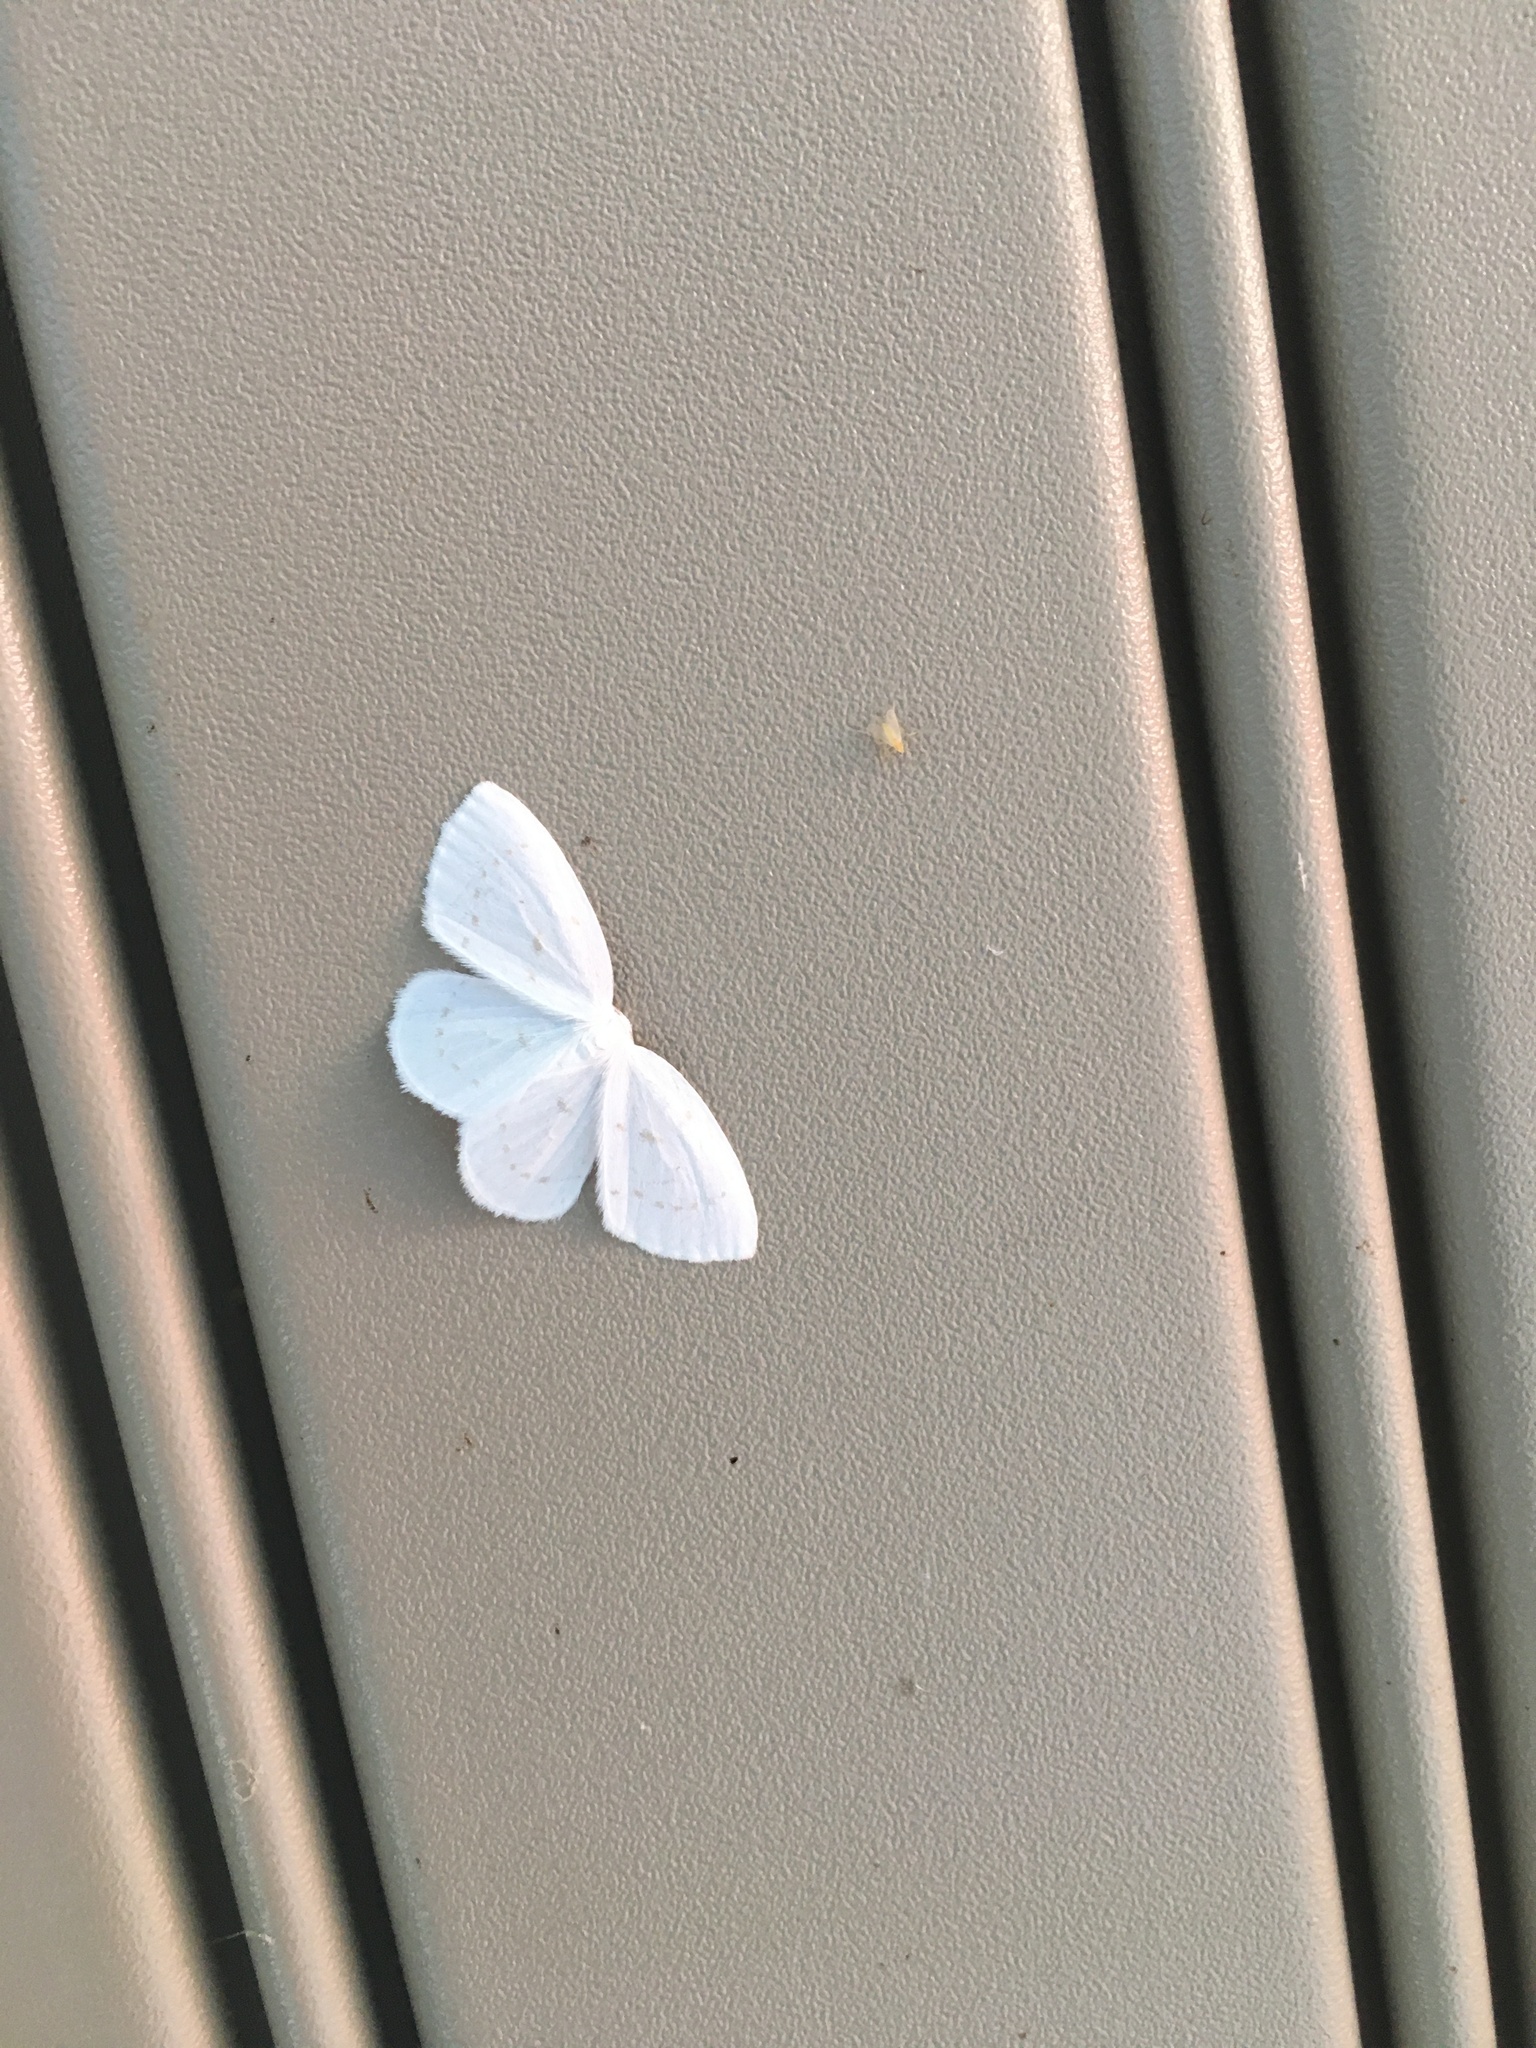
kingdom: Animalia
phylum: Arthropoda
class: Insecta
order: Lepidoptera
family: Drepanidae
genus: Eudeilinia
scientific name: Eudeilinia herminiata
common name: Northern eudeilinea moth
